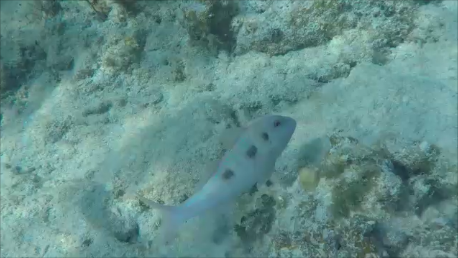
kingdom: Animalia
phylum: Chordata
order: Perciformes
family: Mullidae
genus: Pseudupeneus
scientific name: Pseudupeneus maculatus
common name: Spotted goatfish
